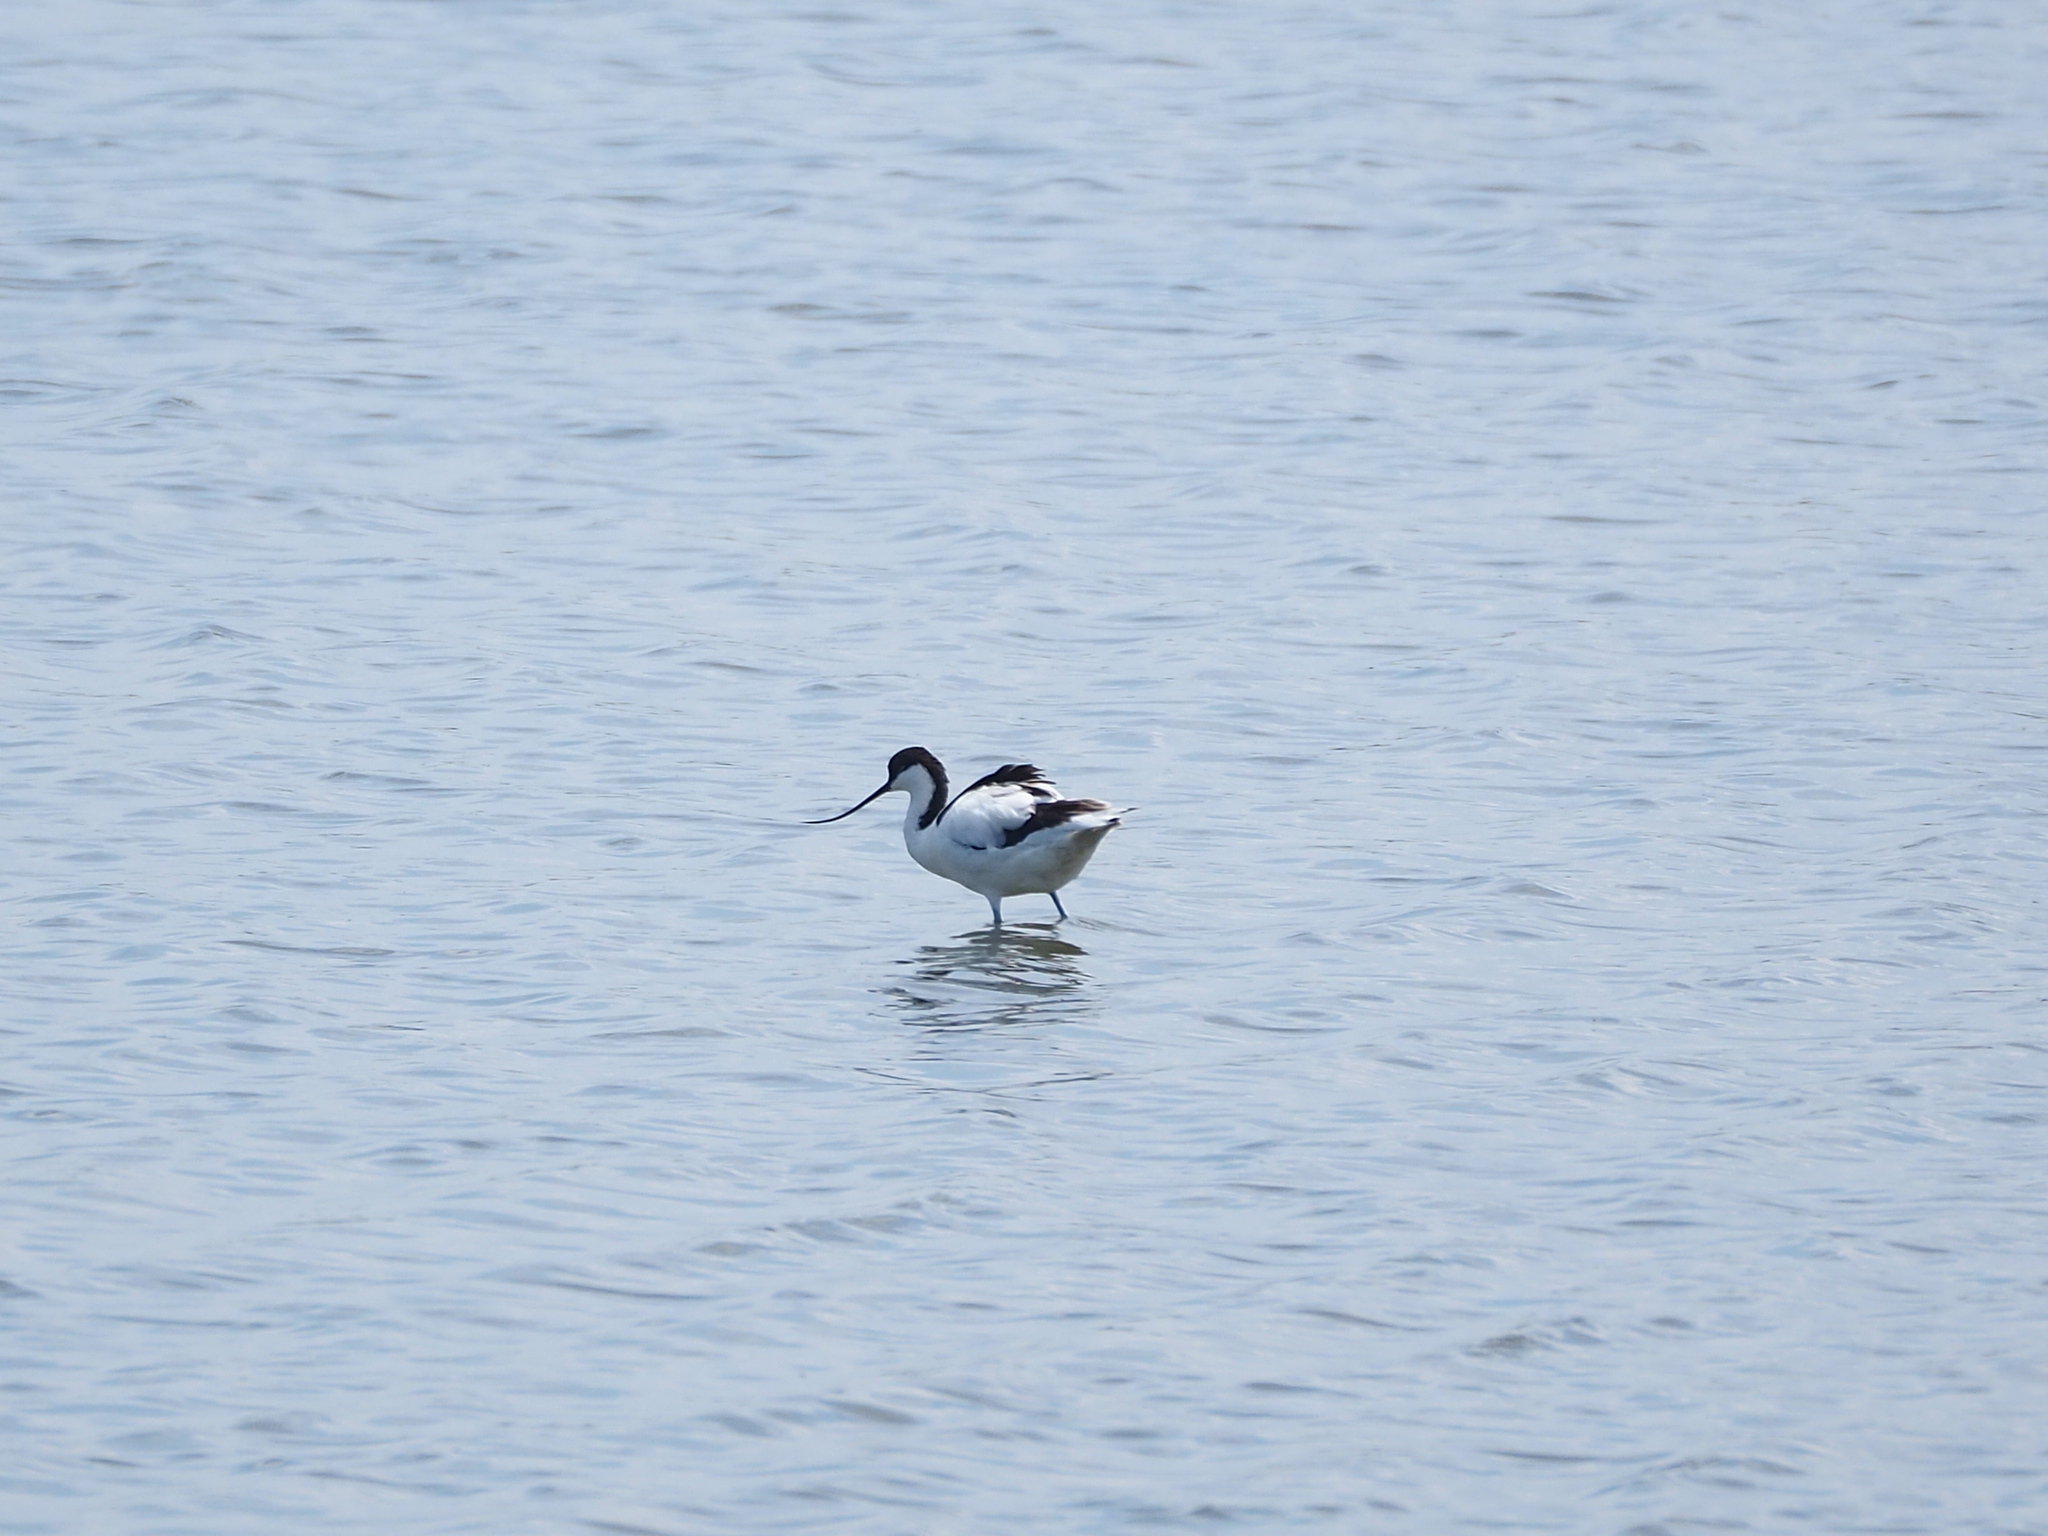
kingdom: Animalia
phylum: Chordata
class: Aves
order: Charadriiformes
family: Recurvirostridae
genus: Recurvirostra
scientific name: Recurvirostra avosetta
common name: Pied avocet
